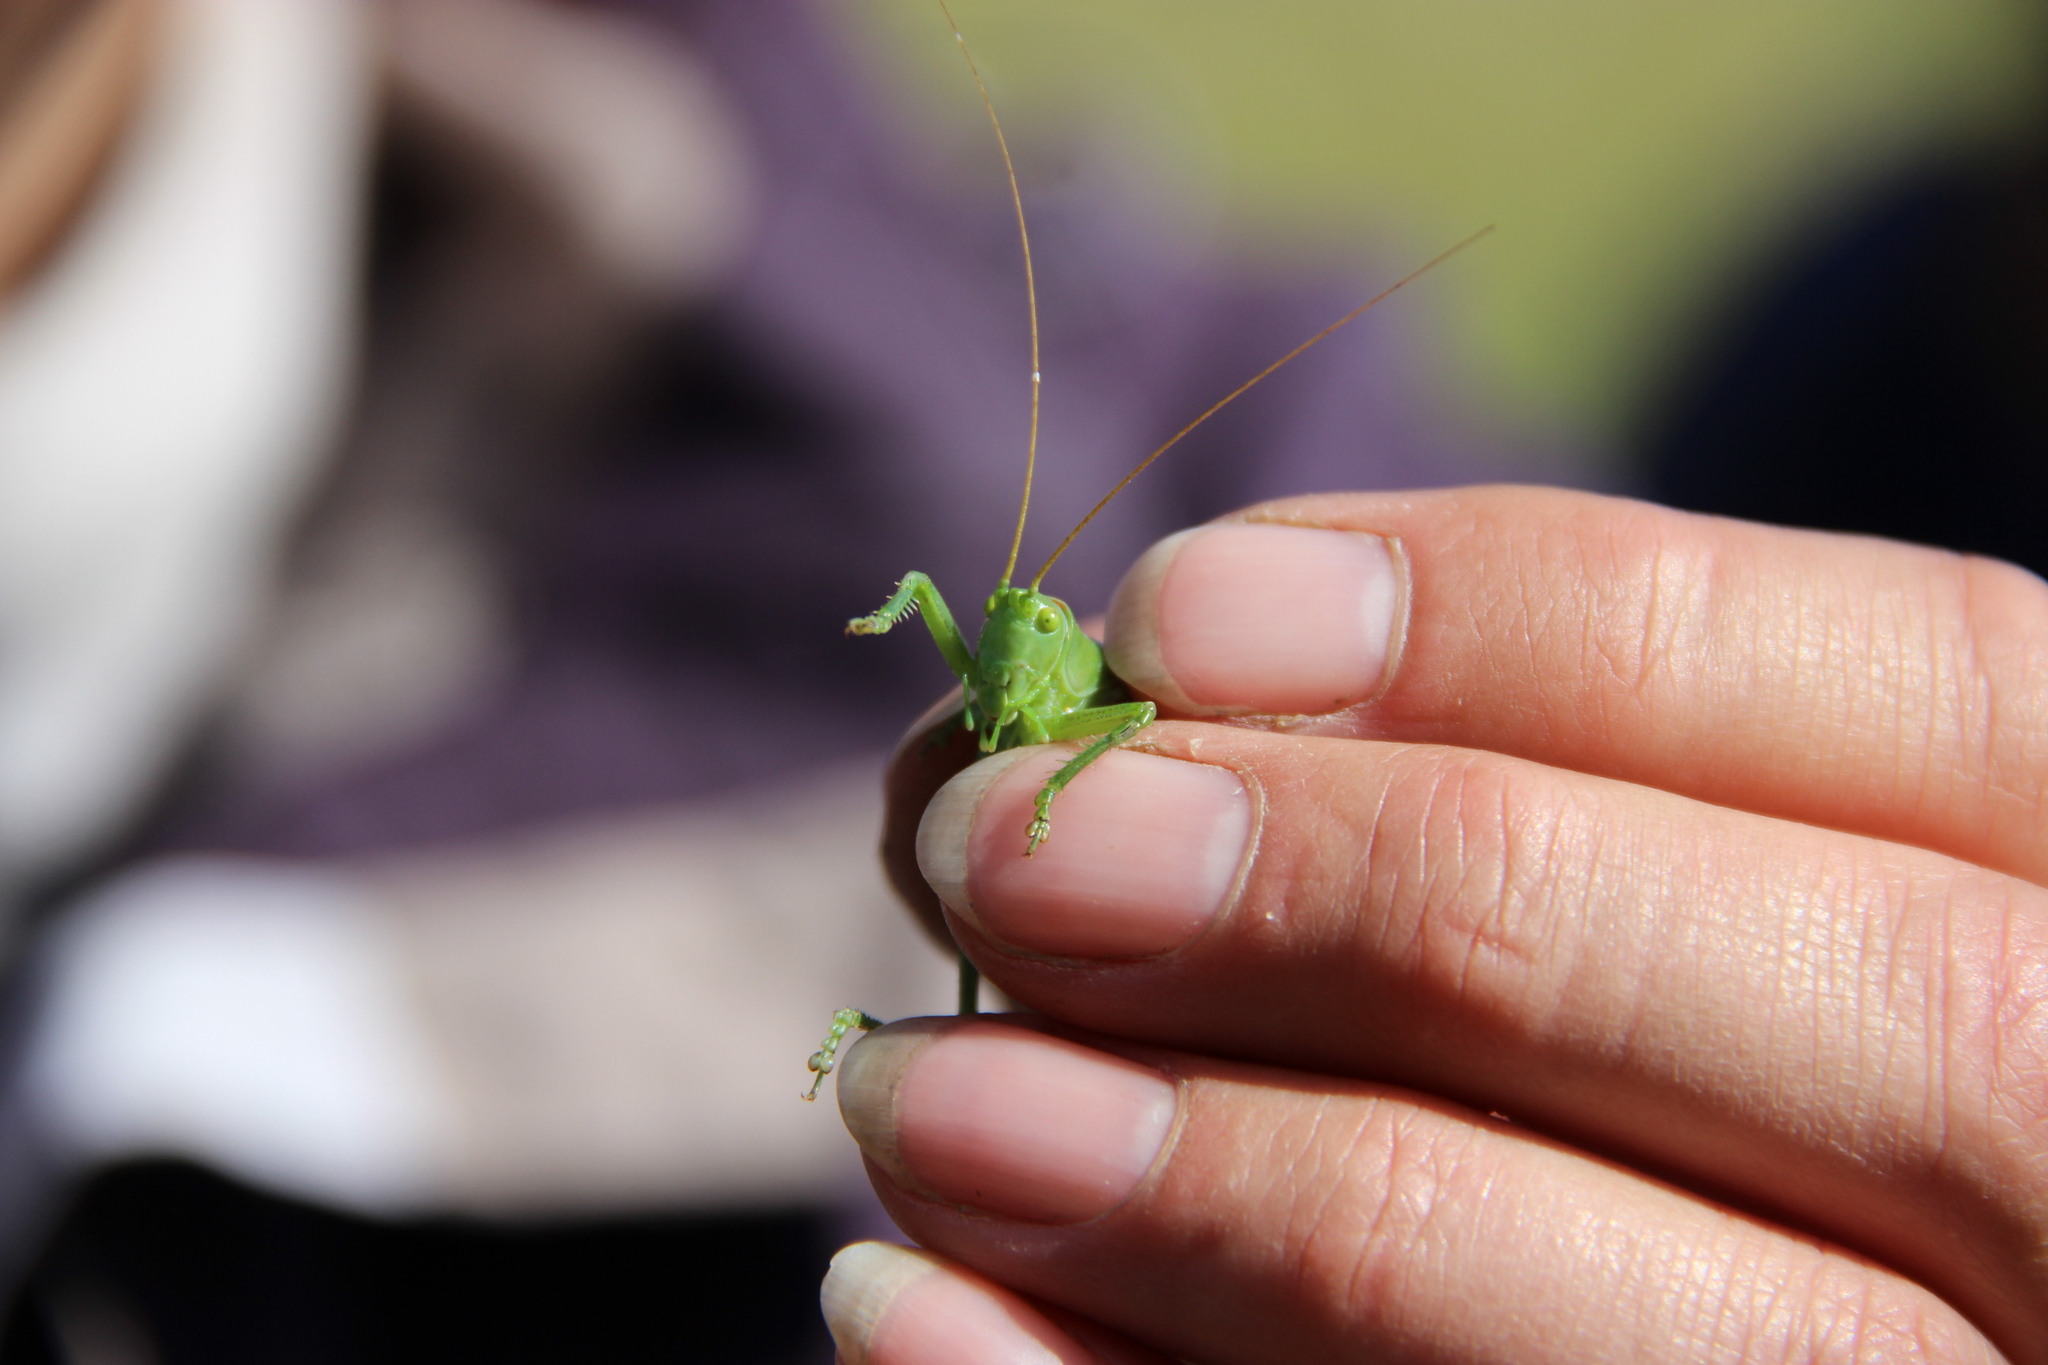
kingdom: Animalia
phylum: Arthropoda
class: Insecta
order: Orthoptera
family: Tettigoniidae
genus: Tettigonia
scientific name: Tettigonia cantans
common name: Upland green bush-cricket
